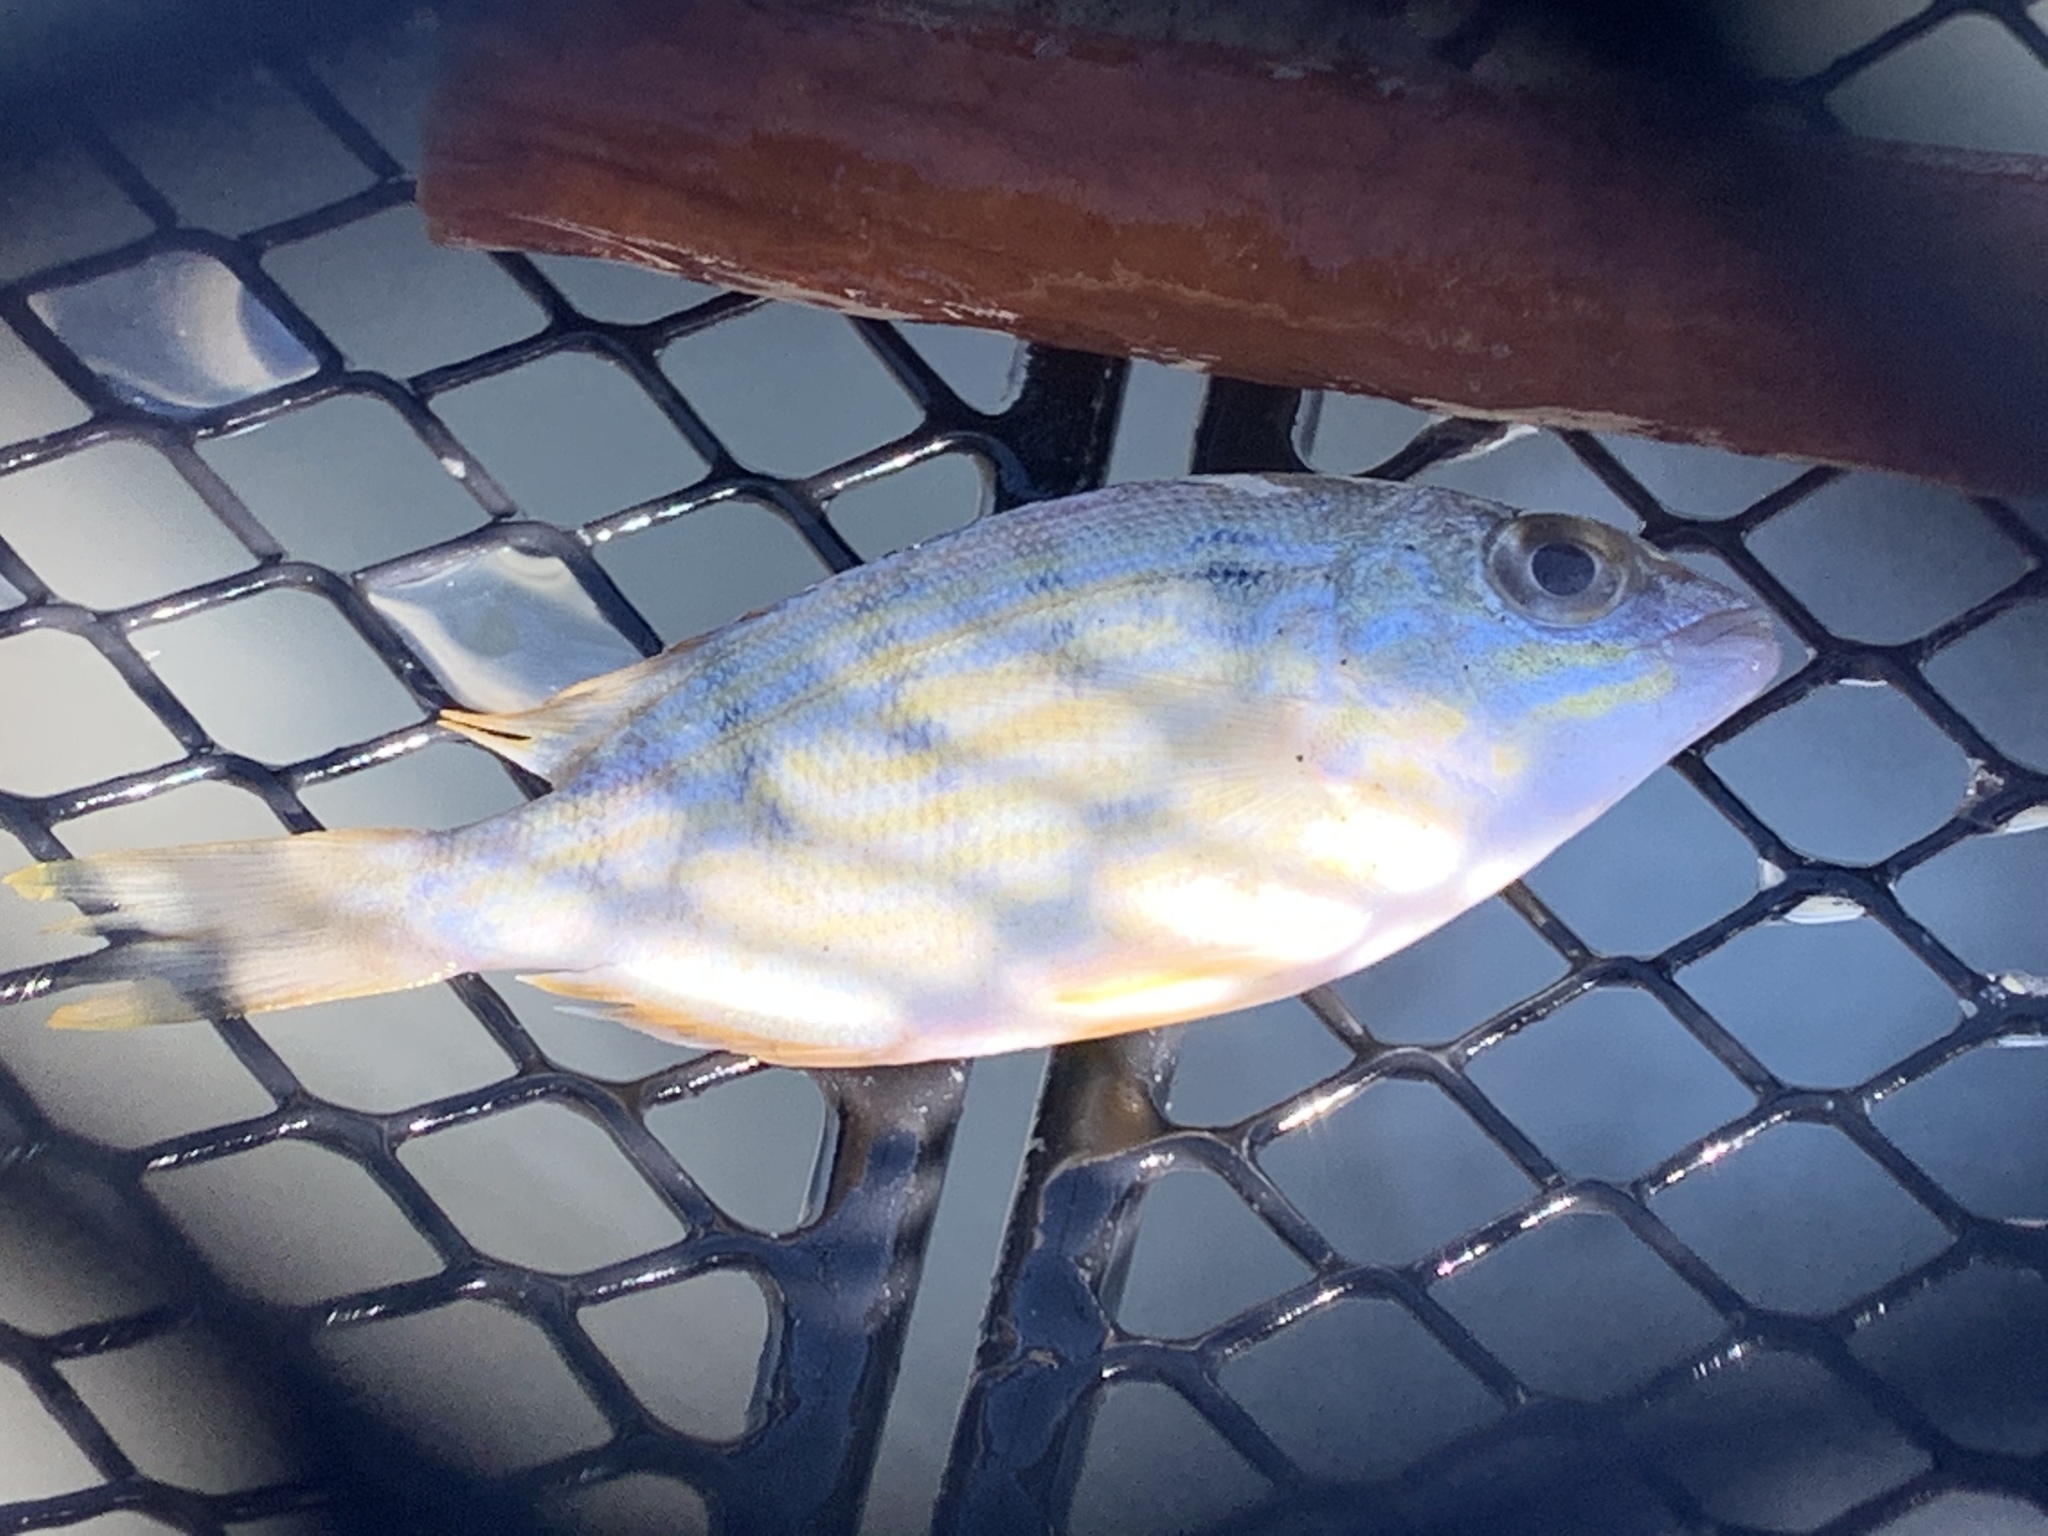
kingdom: Animalia
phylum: Chordata
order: Perciformes
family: Sparidae
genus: Lagodon
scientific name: Lagodon rhomboides
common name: Pinfish
